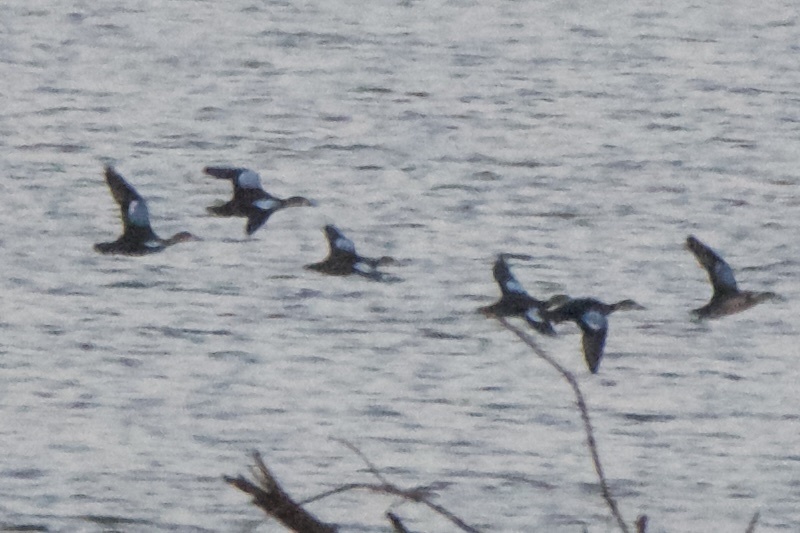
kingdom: Animalia
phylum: Chordata
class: Aves
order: Anseriformes
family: Anatidae
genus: Spatula
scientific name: Spatula discors
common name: Blue-winged teal
